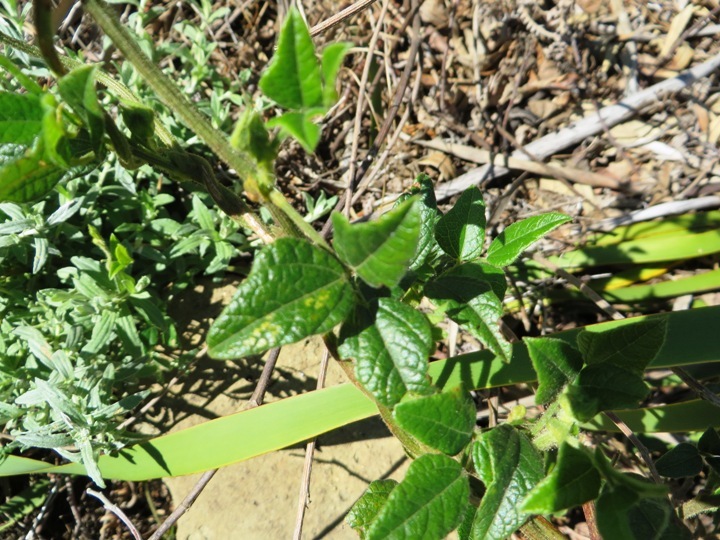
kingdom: Plantae
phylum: Tracheophyta
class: Magnoliopsida
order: Fabales
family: Fabaceae
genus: Bolusafra
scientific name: Bolusafra bituminosa
